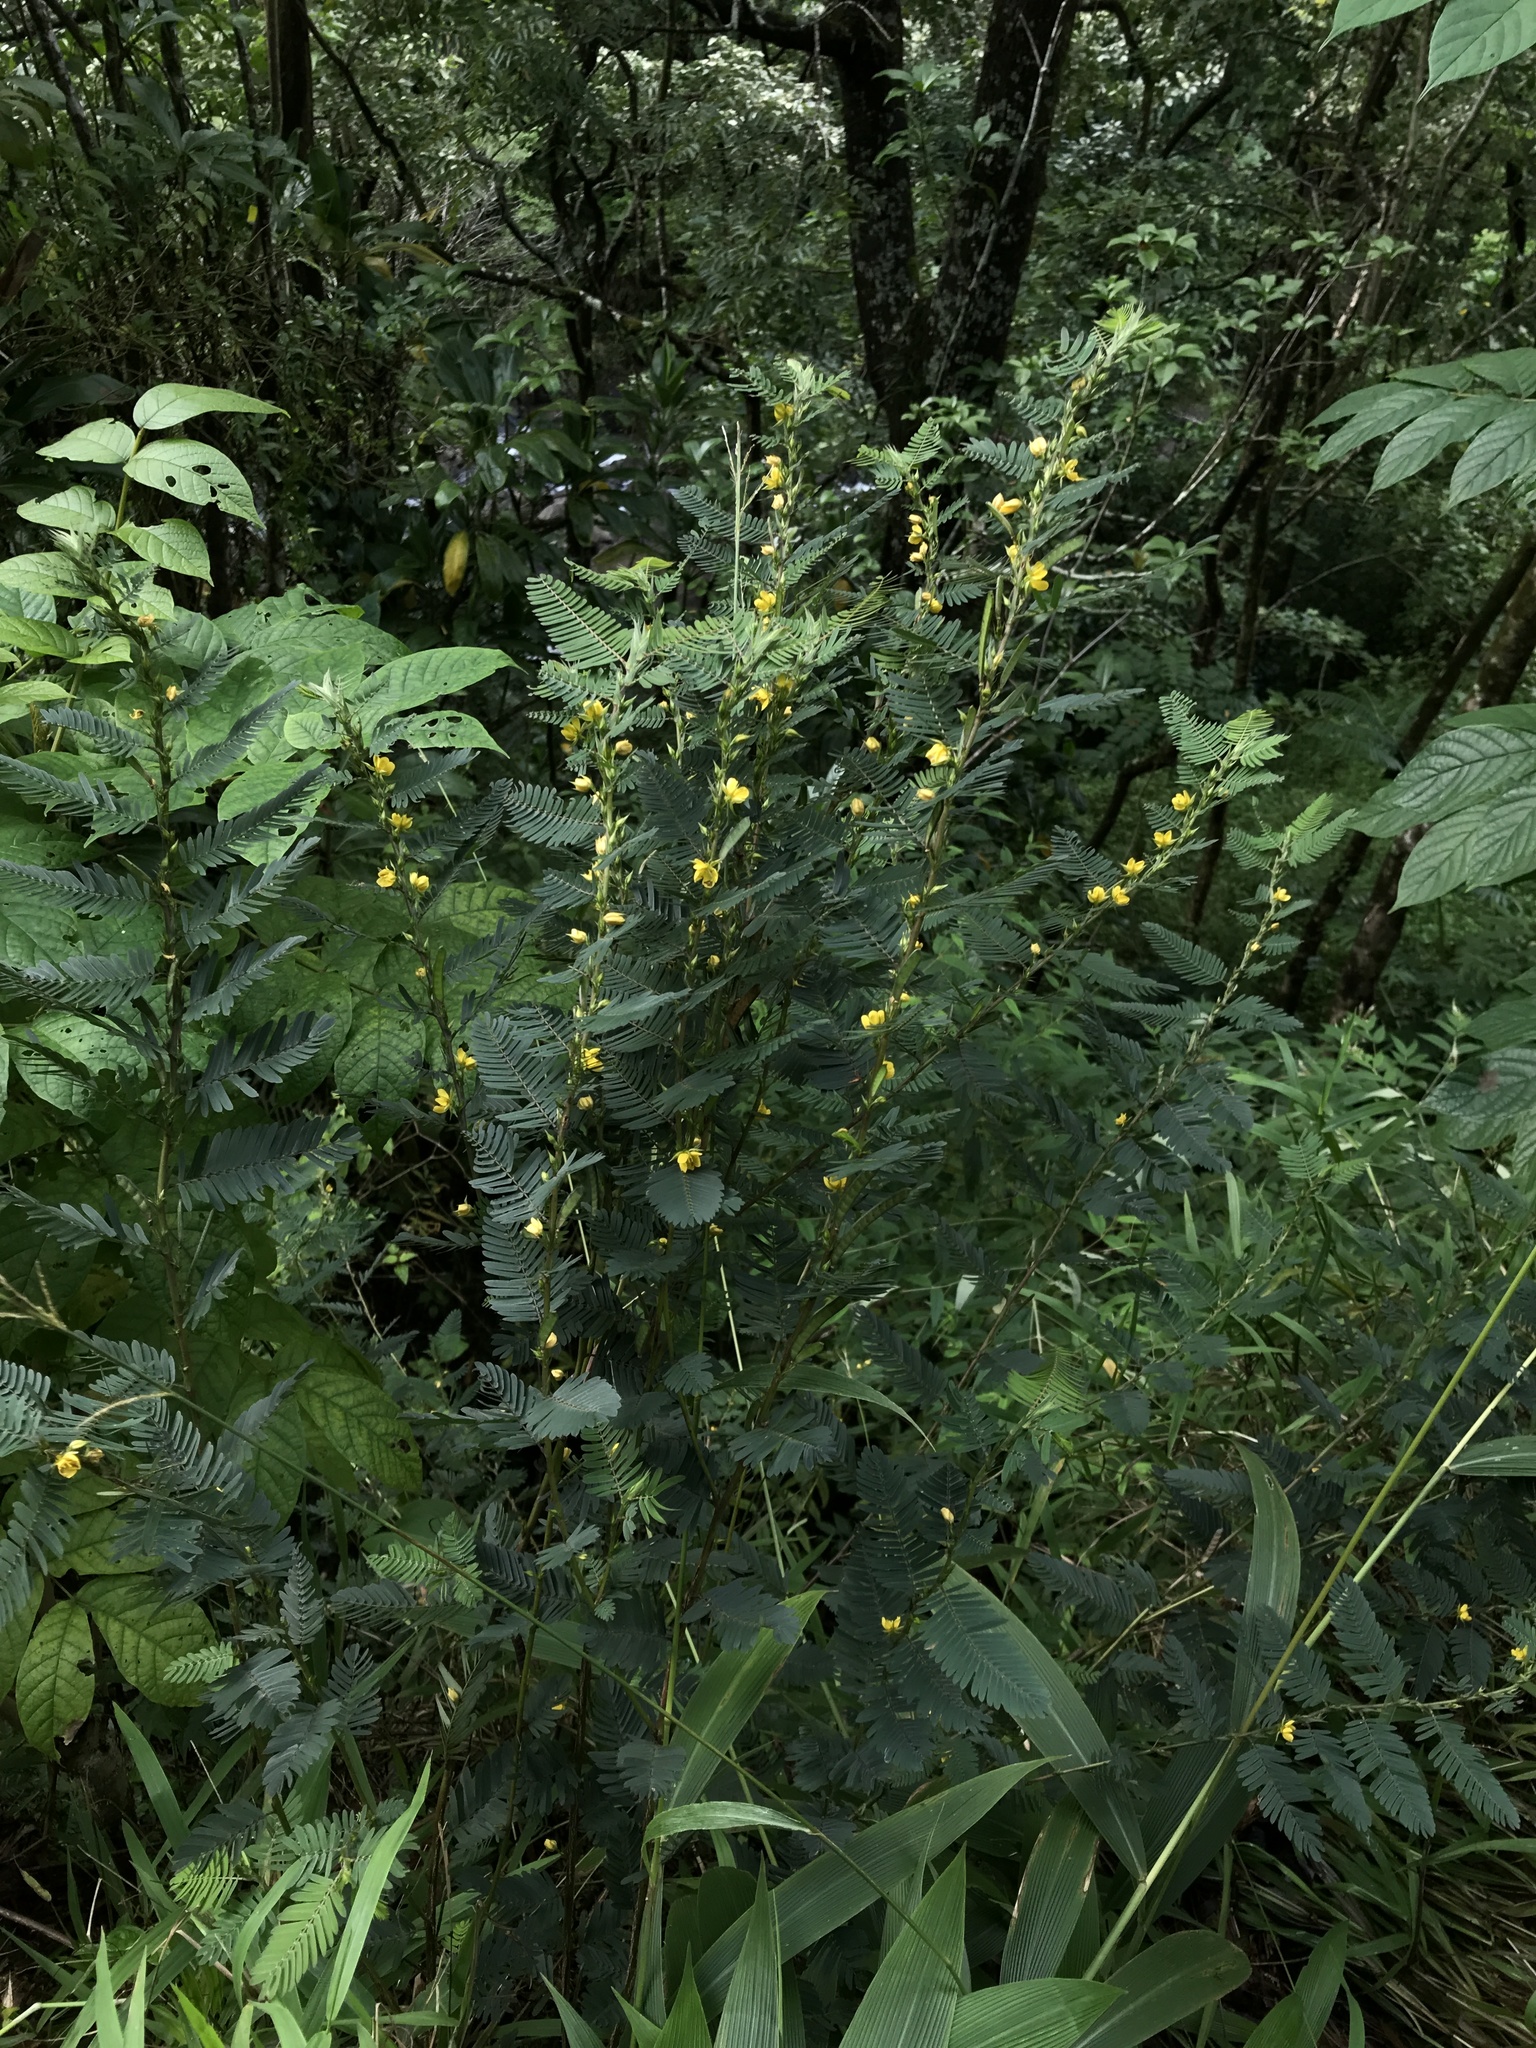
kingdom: Plantae
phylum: Tracheophyta
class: Magnoliopsida
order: Fabales
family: Fabaceae
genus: Chamaecrista
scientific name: Chamaecrista nictitans
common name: Sensitive cassia
